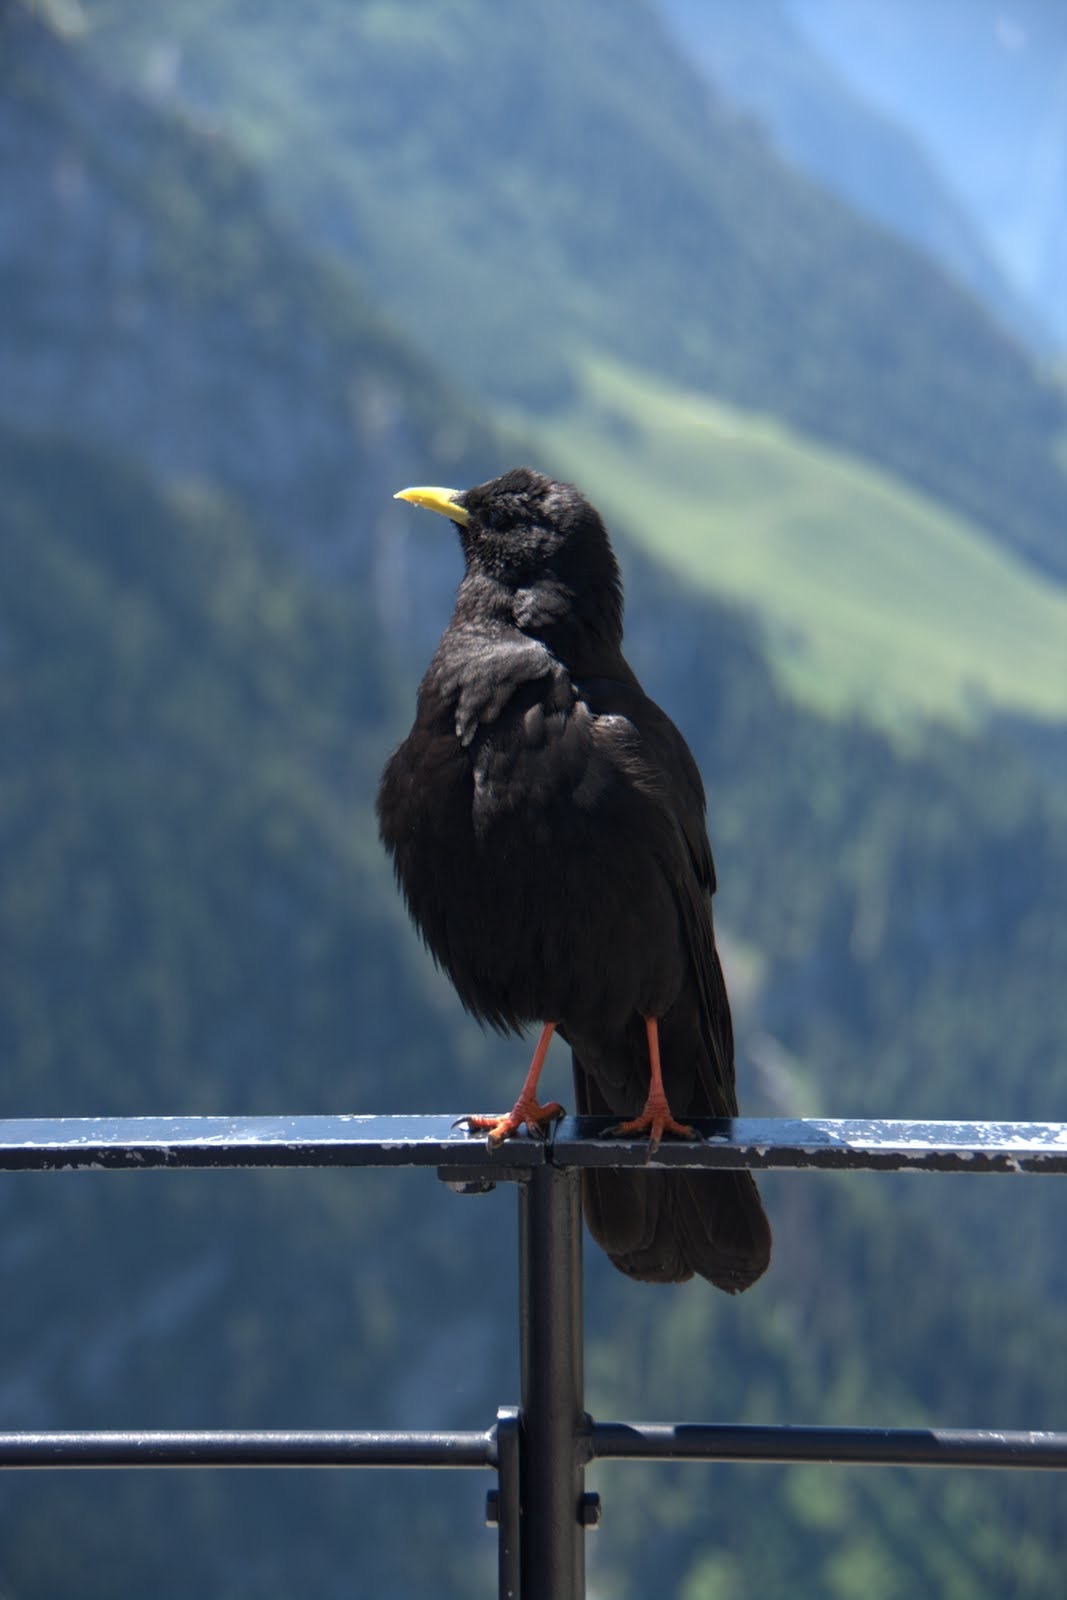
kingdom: Animalia
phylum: Chordata
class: Aves
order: Passeriformes
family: Corvidae
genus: Pyrrhocorax
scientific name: Pyrrhocorax graculus
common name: Alpine chough
